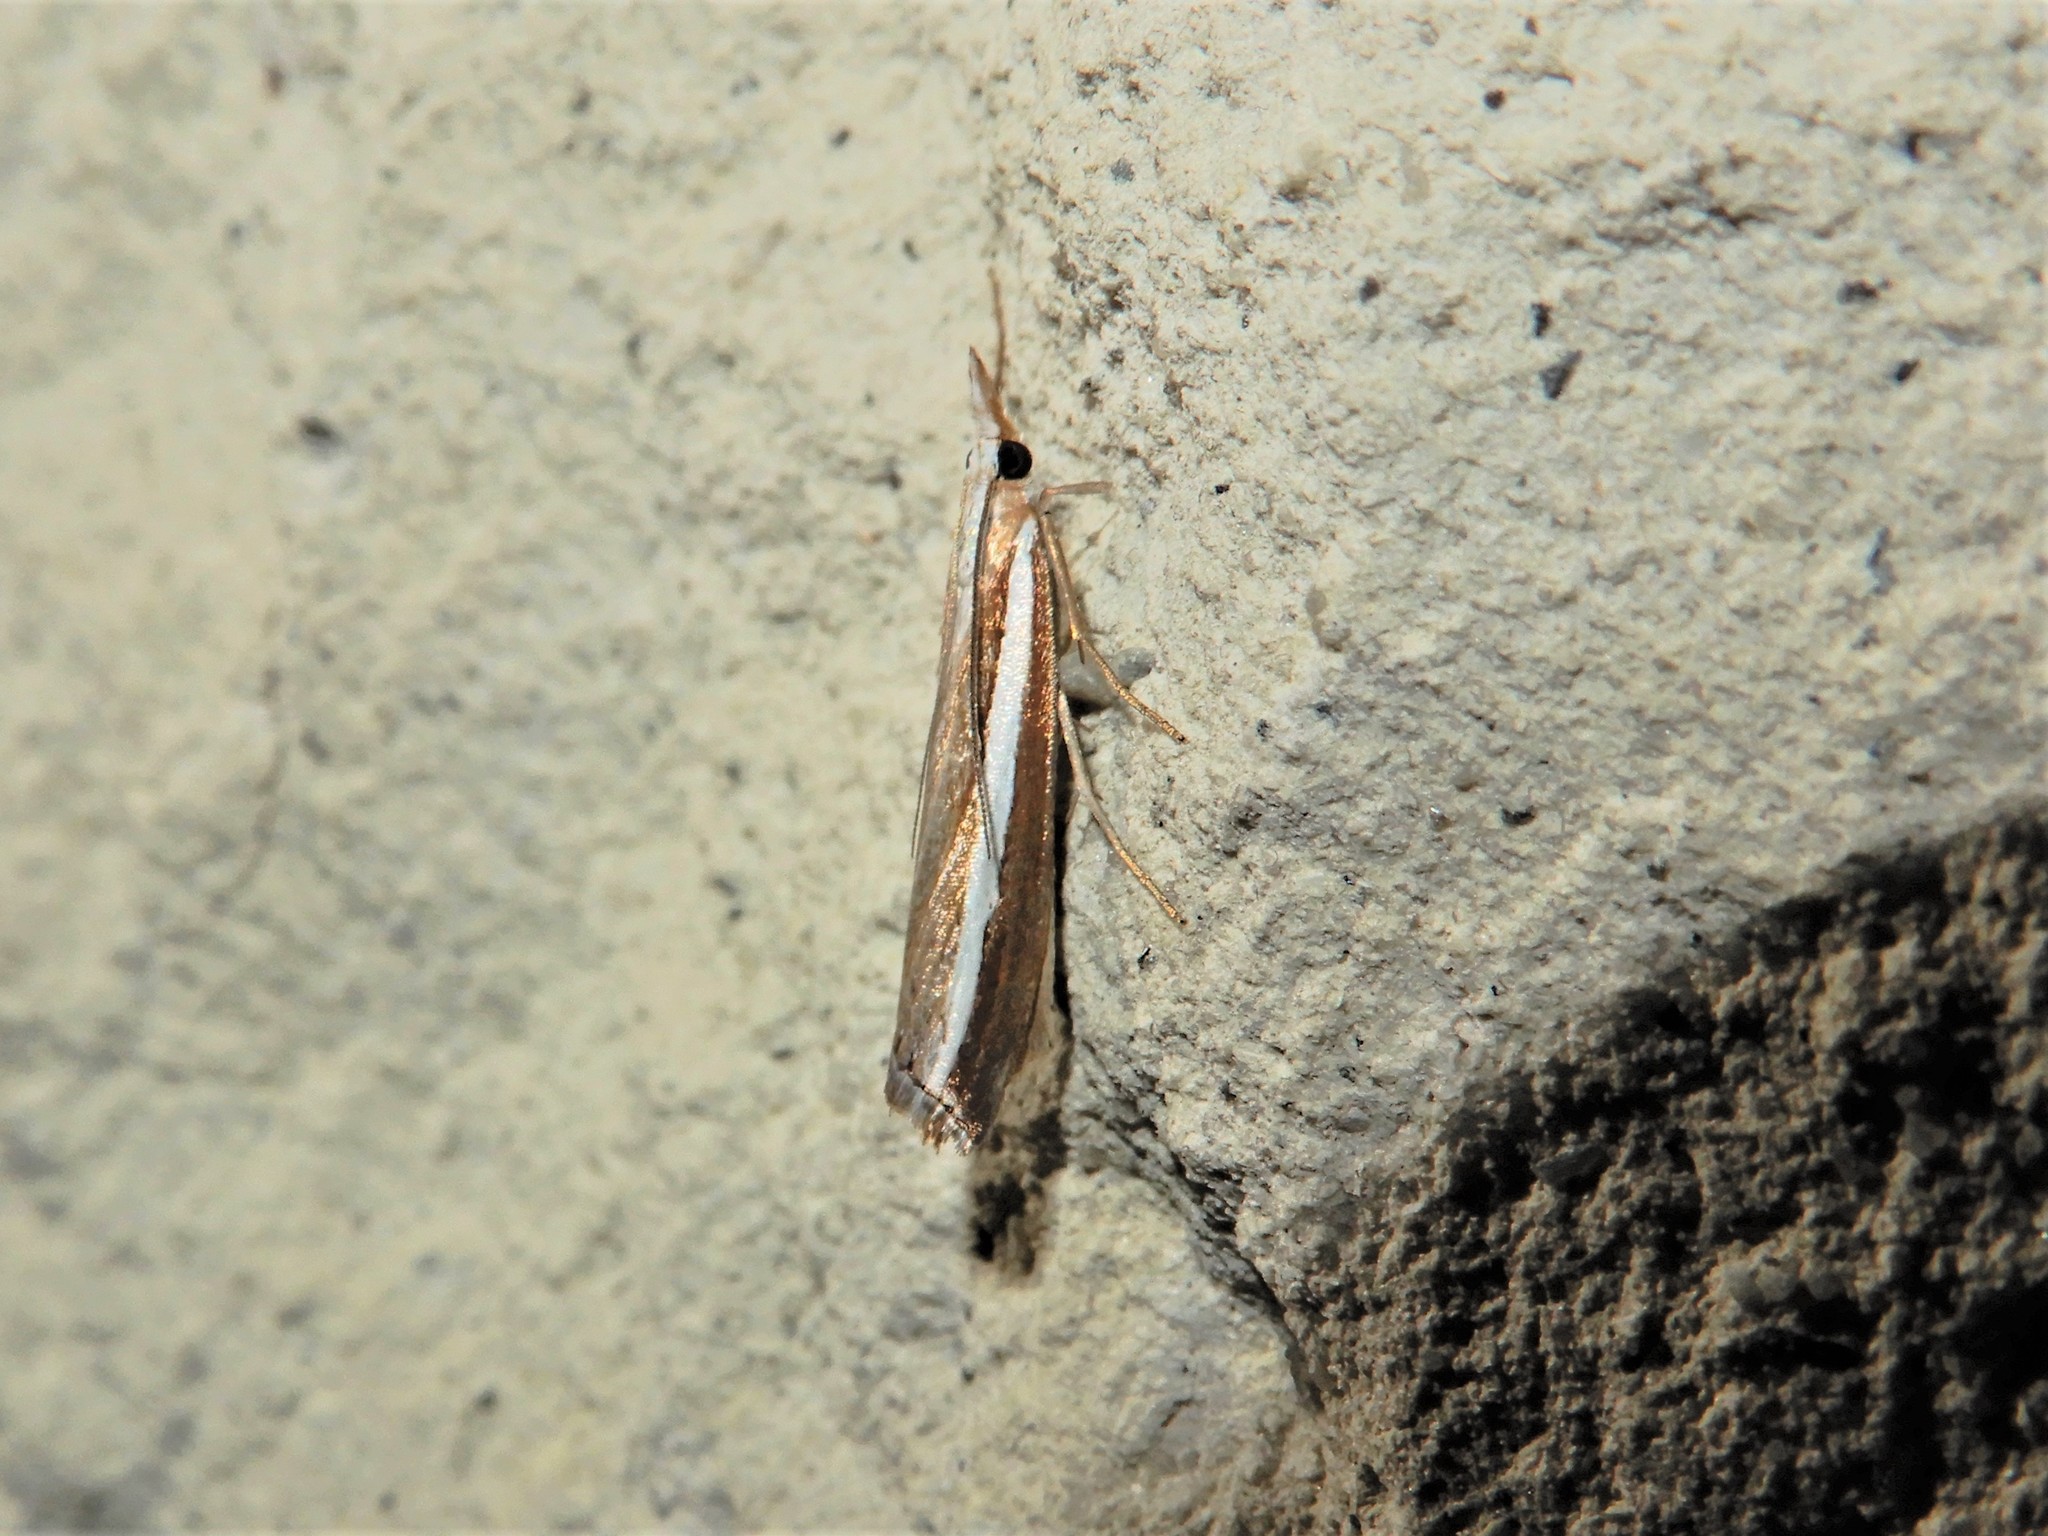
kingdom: Animalia
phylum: Arthropoda
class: Insecta
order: Lepidoptera
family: Crambidae
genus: Orocrambus
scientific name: Orocrambus vittellus
